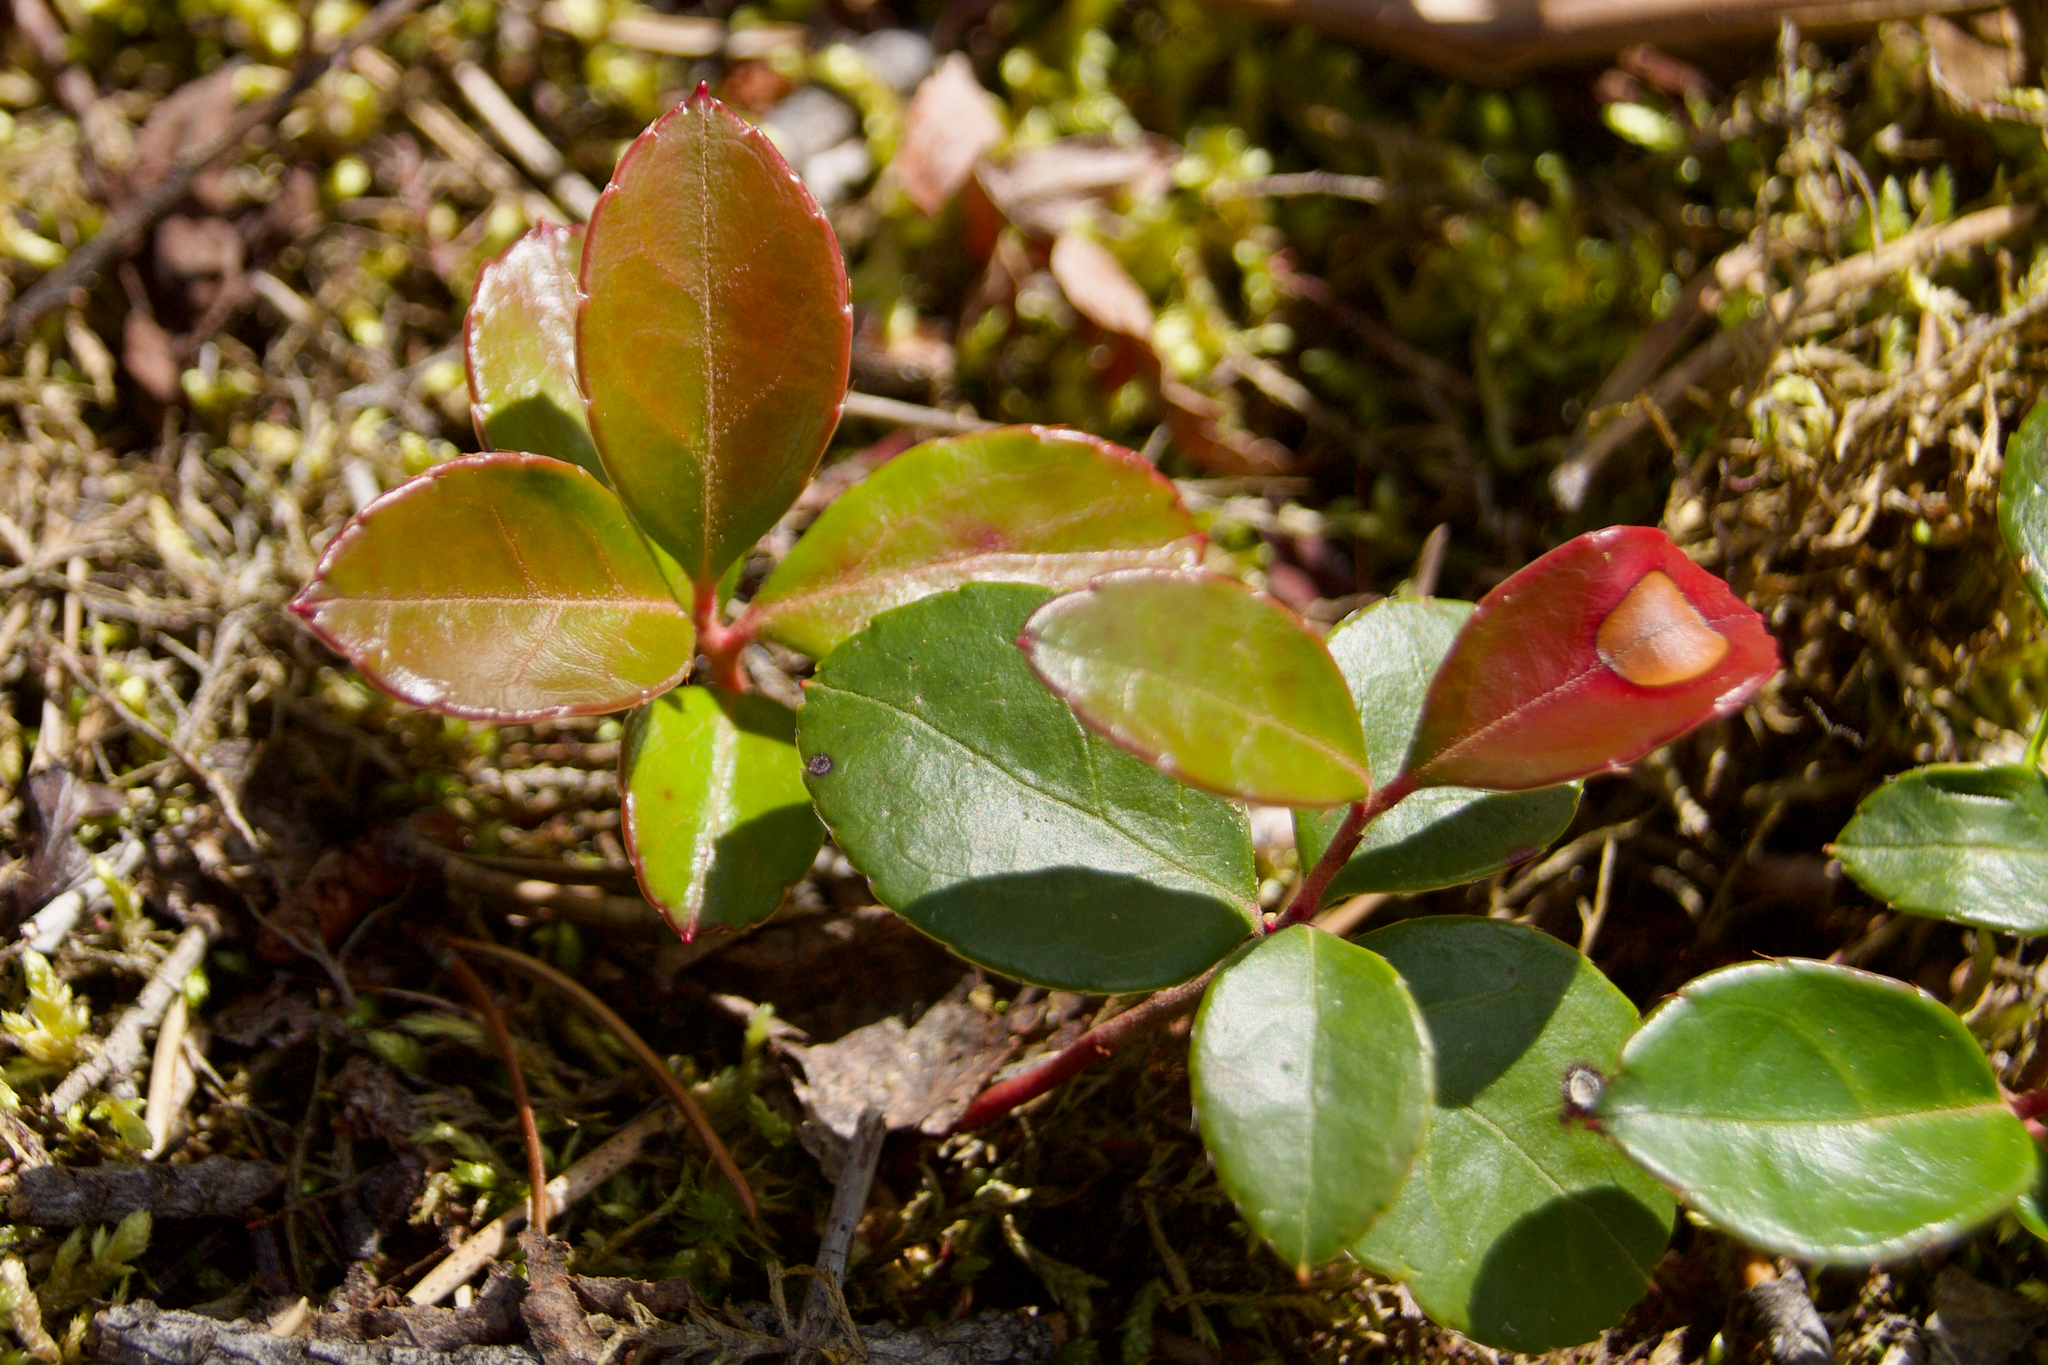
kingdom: Plantae
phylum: Tracheophyta
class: Magnoliopsida
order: Ericales
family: Ericaceae
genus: Gaultheria
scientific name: Gaultheria procumbens
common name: Checkerberry
